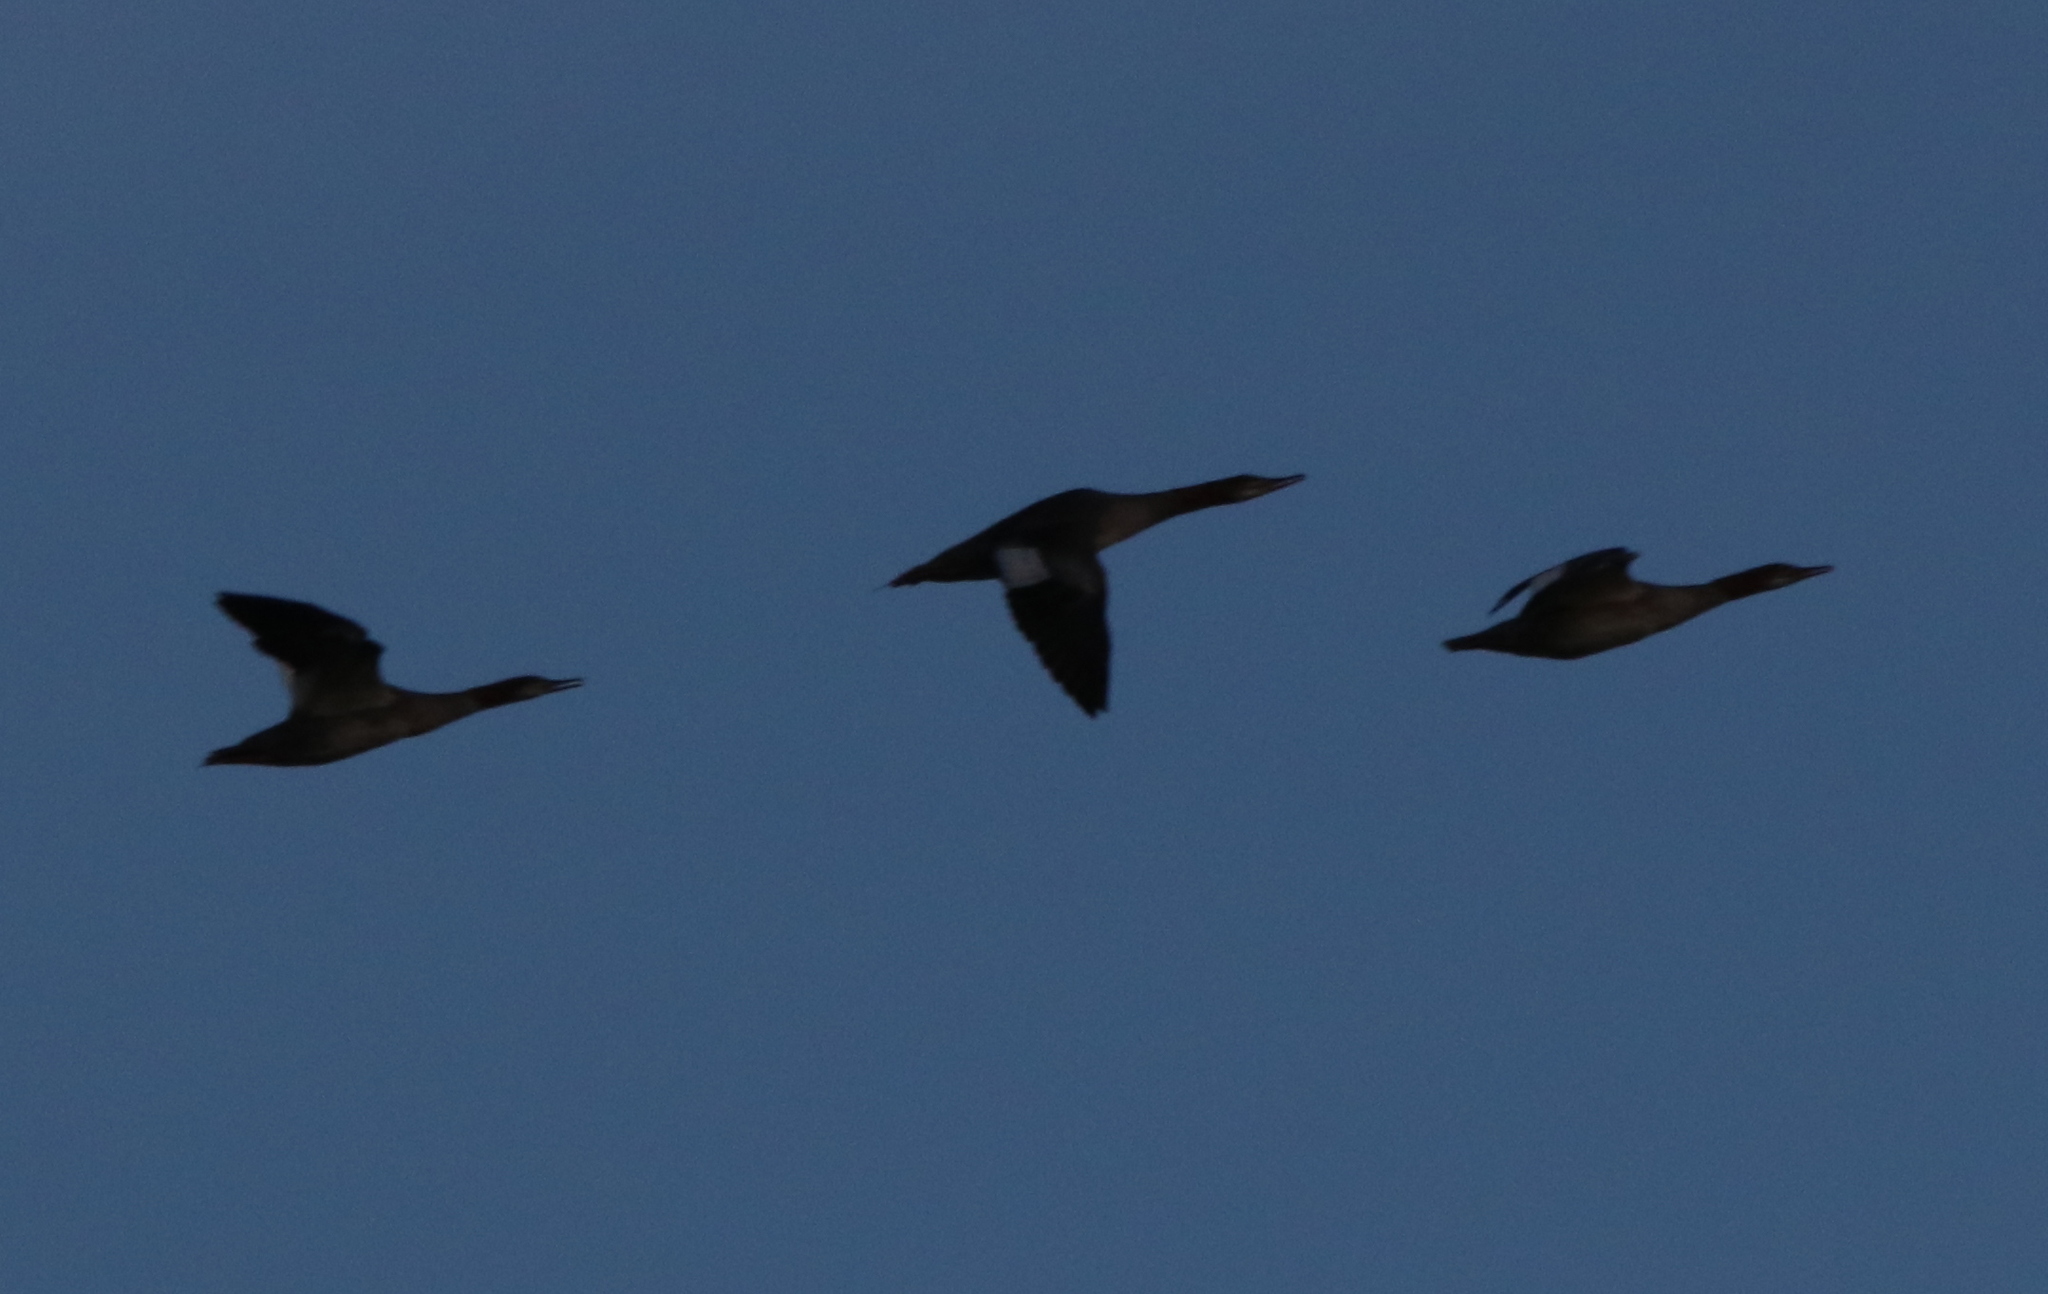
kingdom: Animalia
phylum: Chordata
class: Aves
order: Anseriformes
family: Anatidae
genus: Mergus
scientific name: Mergus merganser
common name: Common merganser
